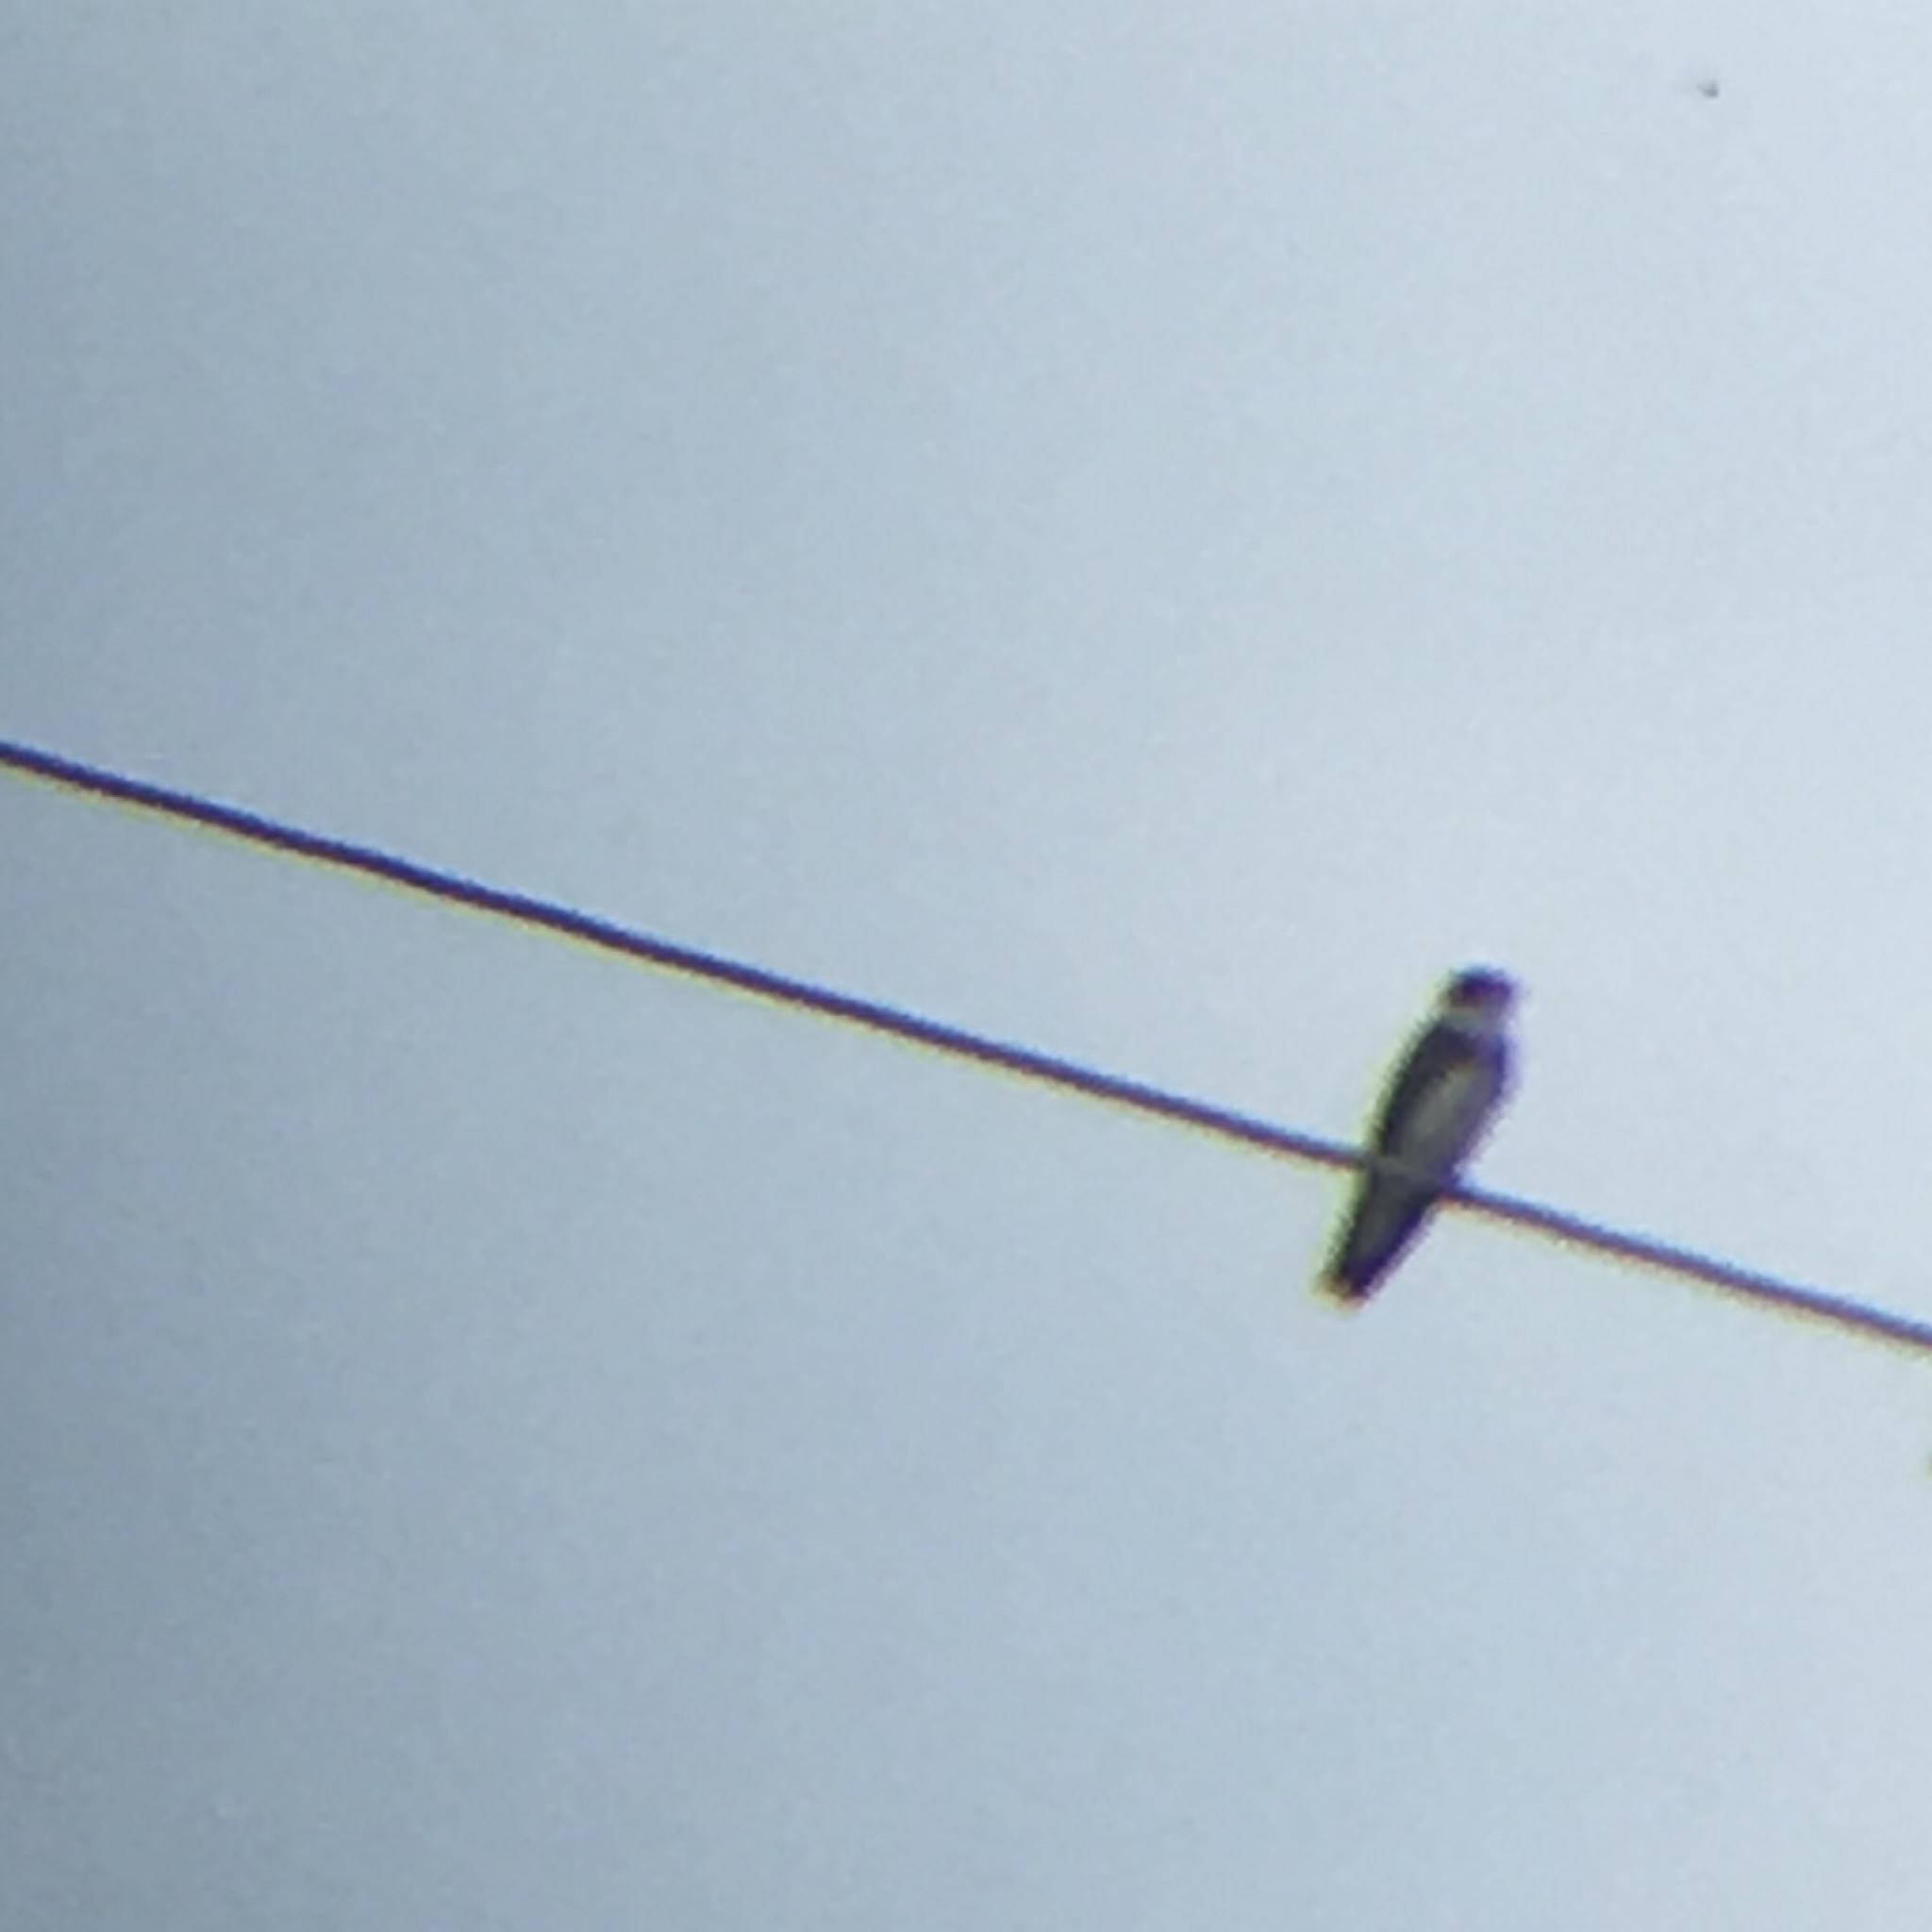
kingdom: Animalia
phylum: Chordata
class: Aves
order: Passeriformes
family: Hirundinidae
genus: Riparia
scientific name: Riparia riparia
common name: Sand martin
